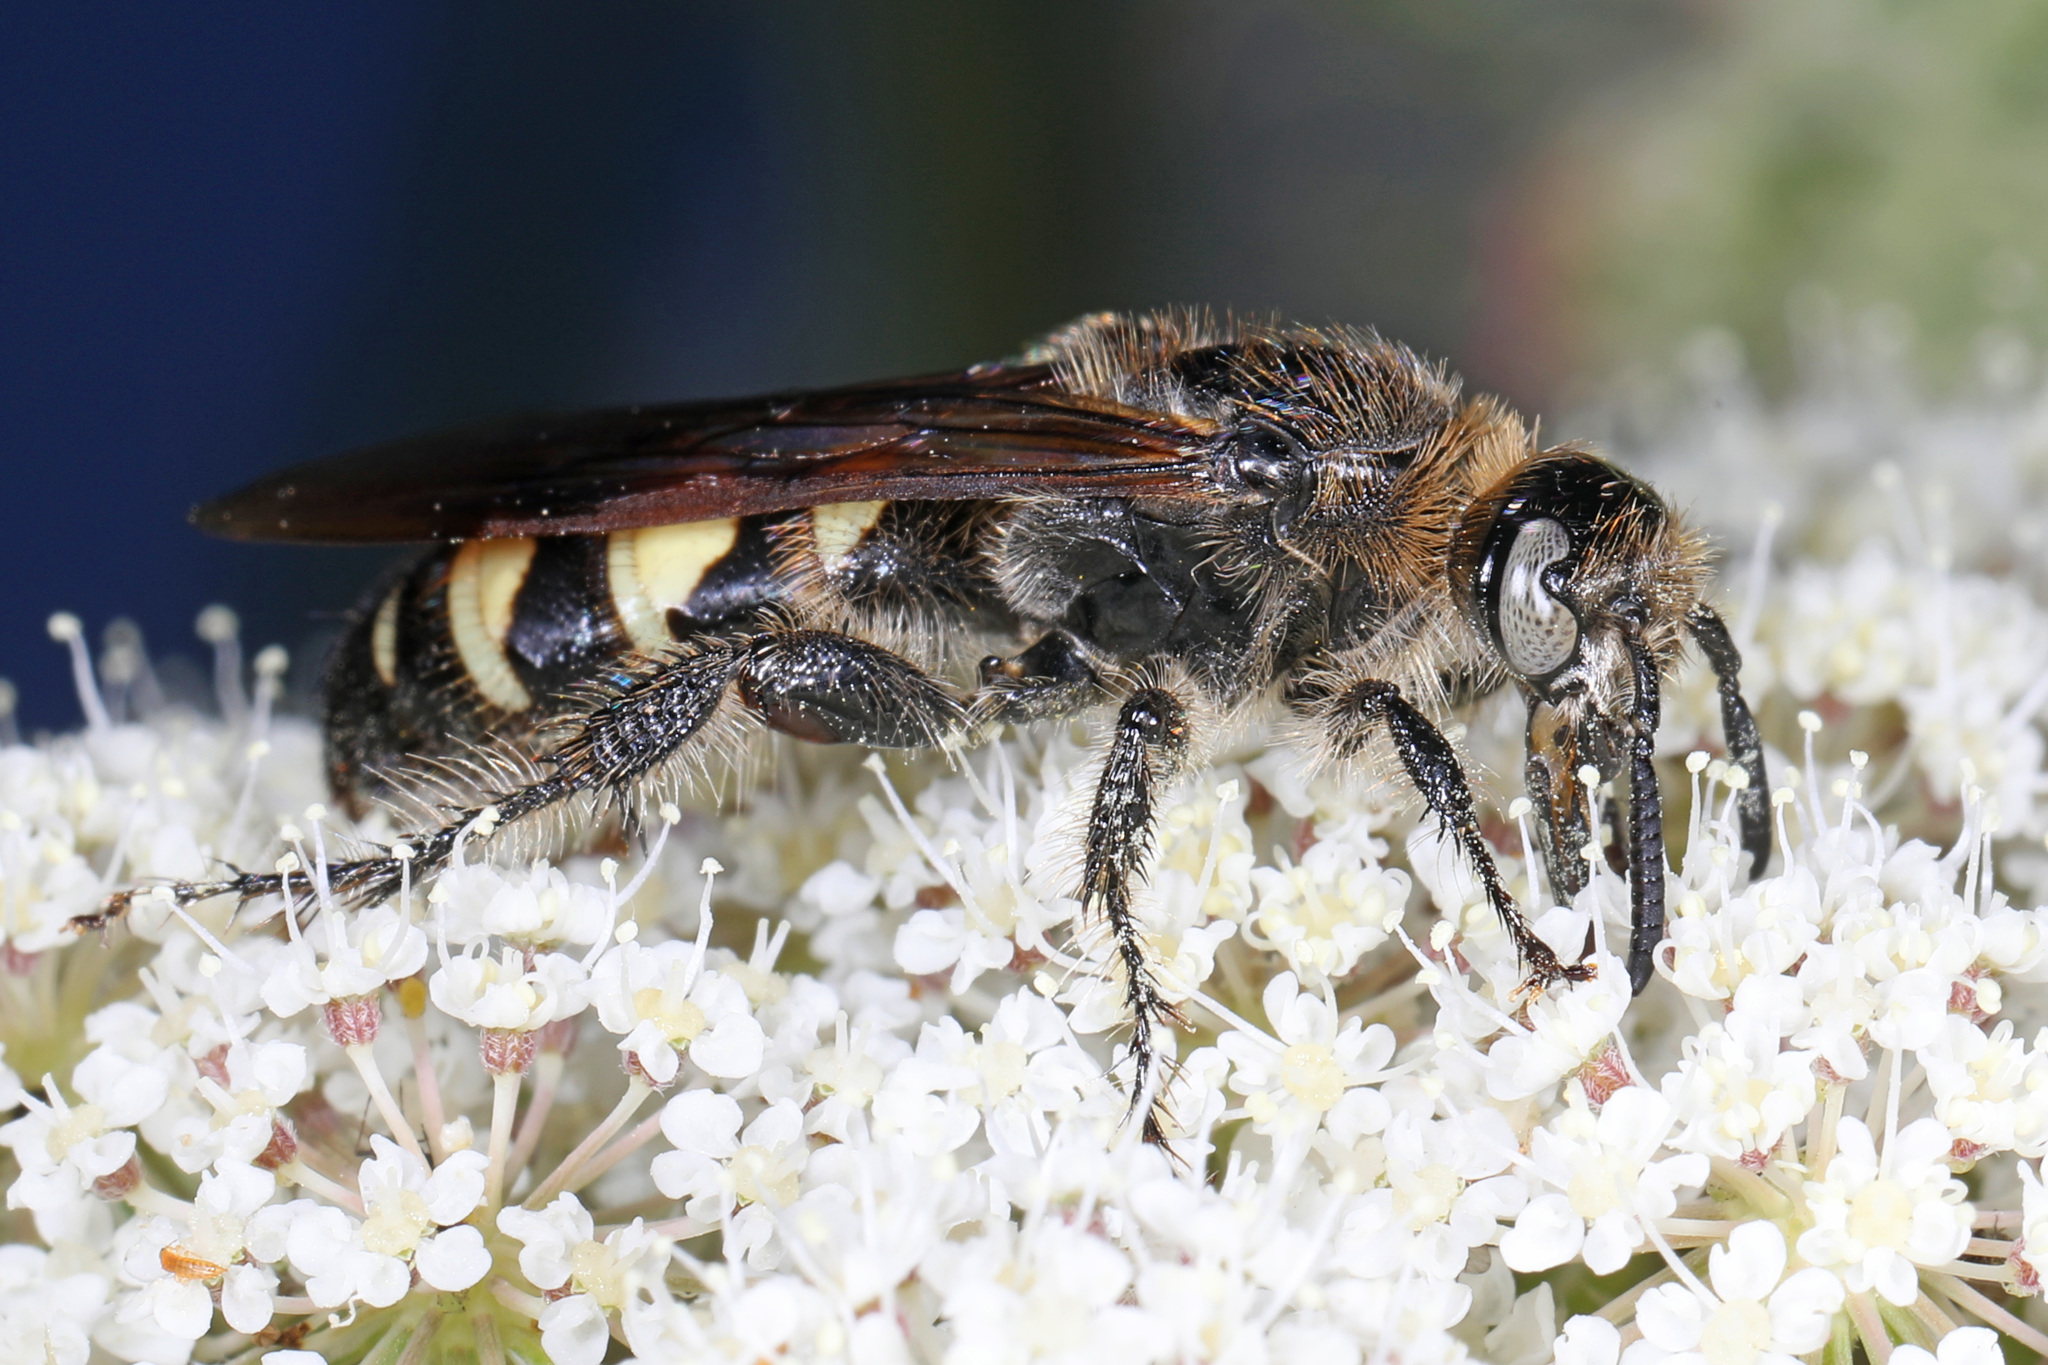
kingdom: Animalia
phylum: Arthropoda
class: Insecta
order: Hymenoptera
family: Scoliidae
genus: Dielis
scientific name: Dielis
